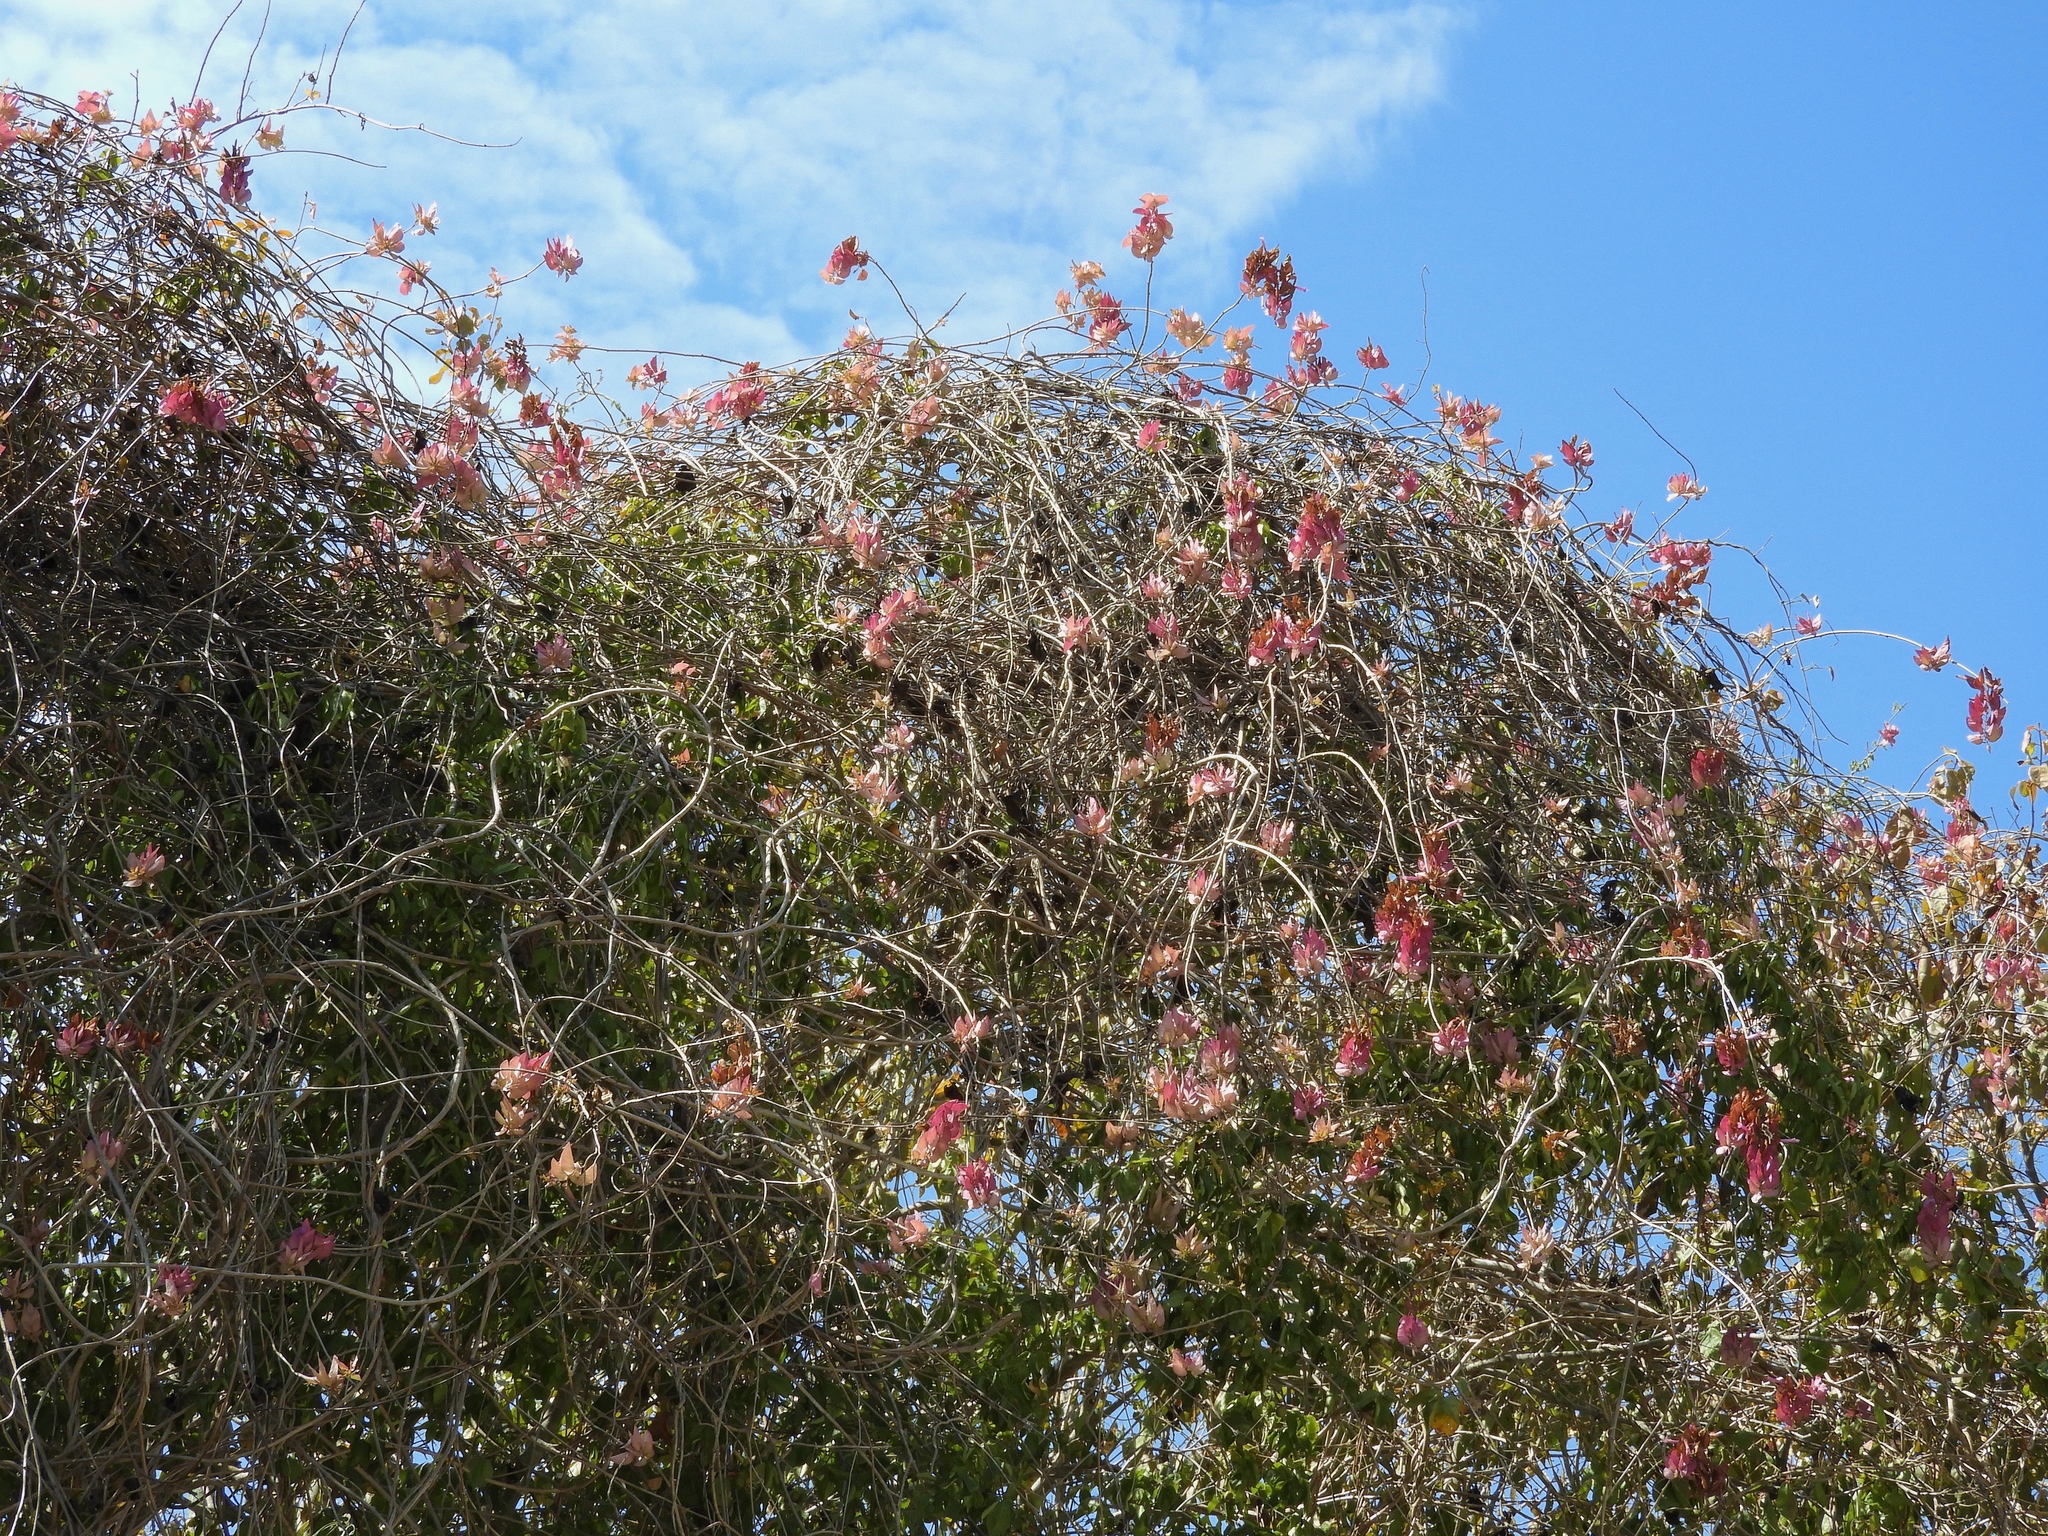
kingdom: Plantae
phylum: Tracheophyta
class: Magnoliopsida
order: Solanales
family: Convolvulaceae
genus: Ipomoea
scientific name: Ipomoea bracteata
